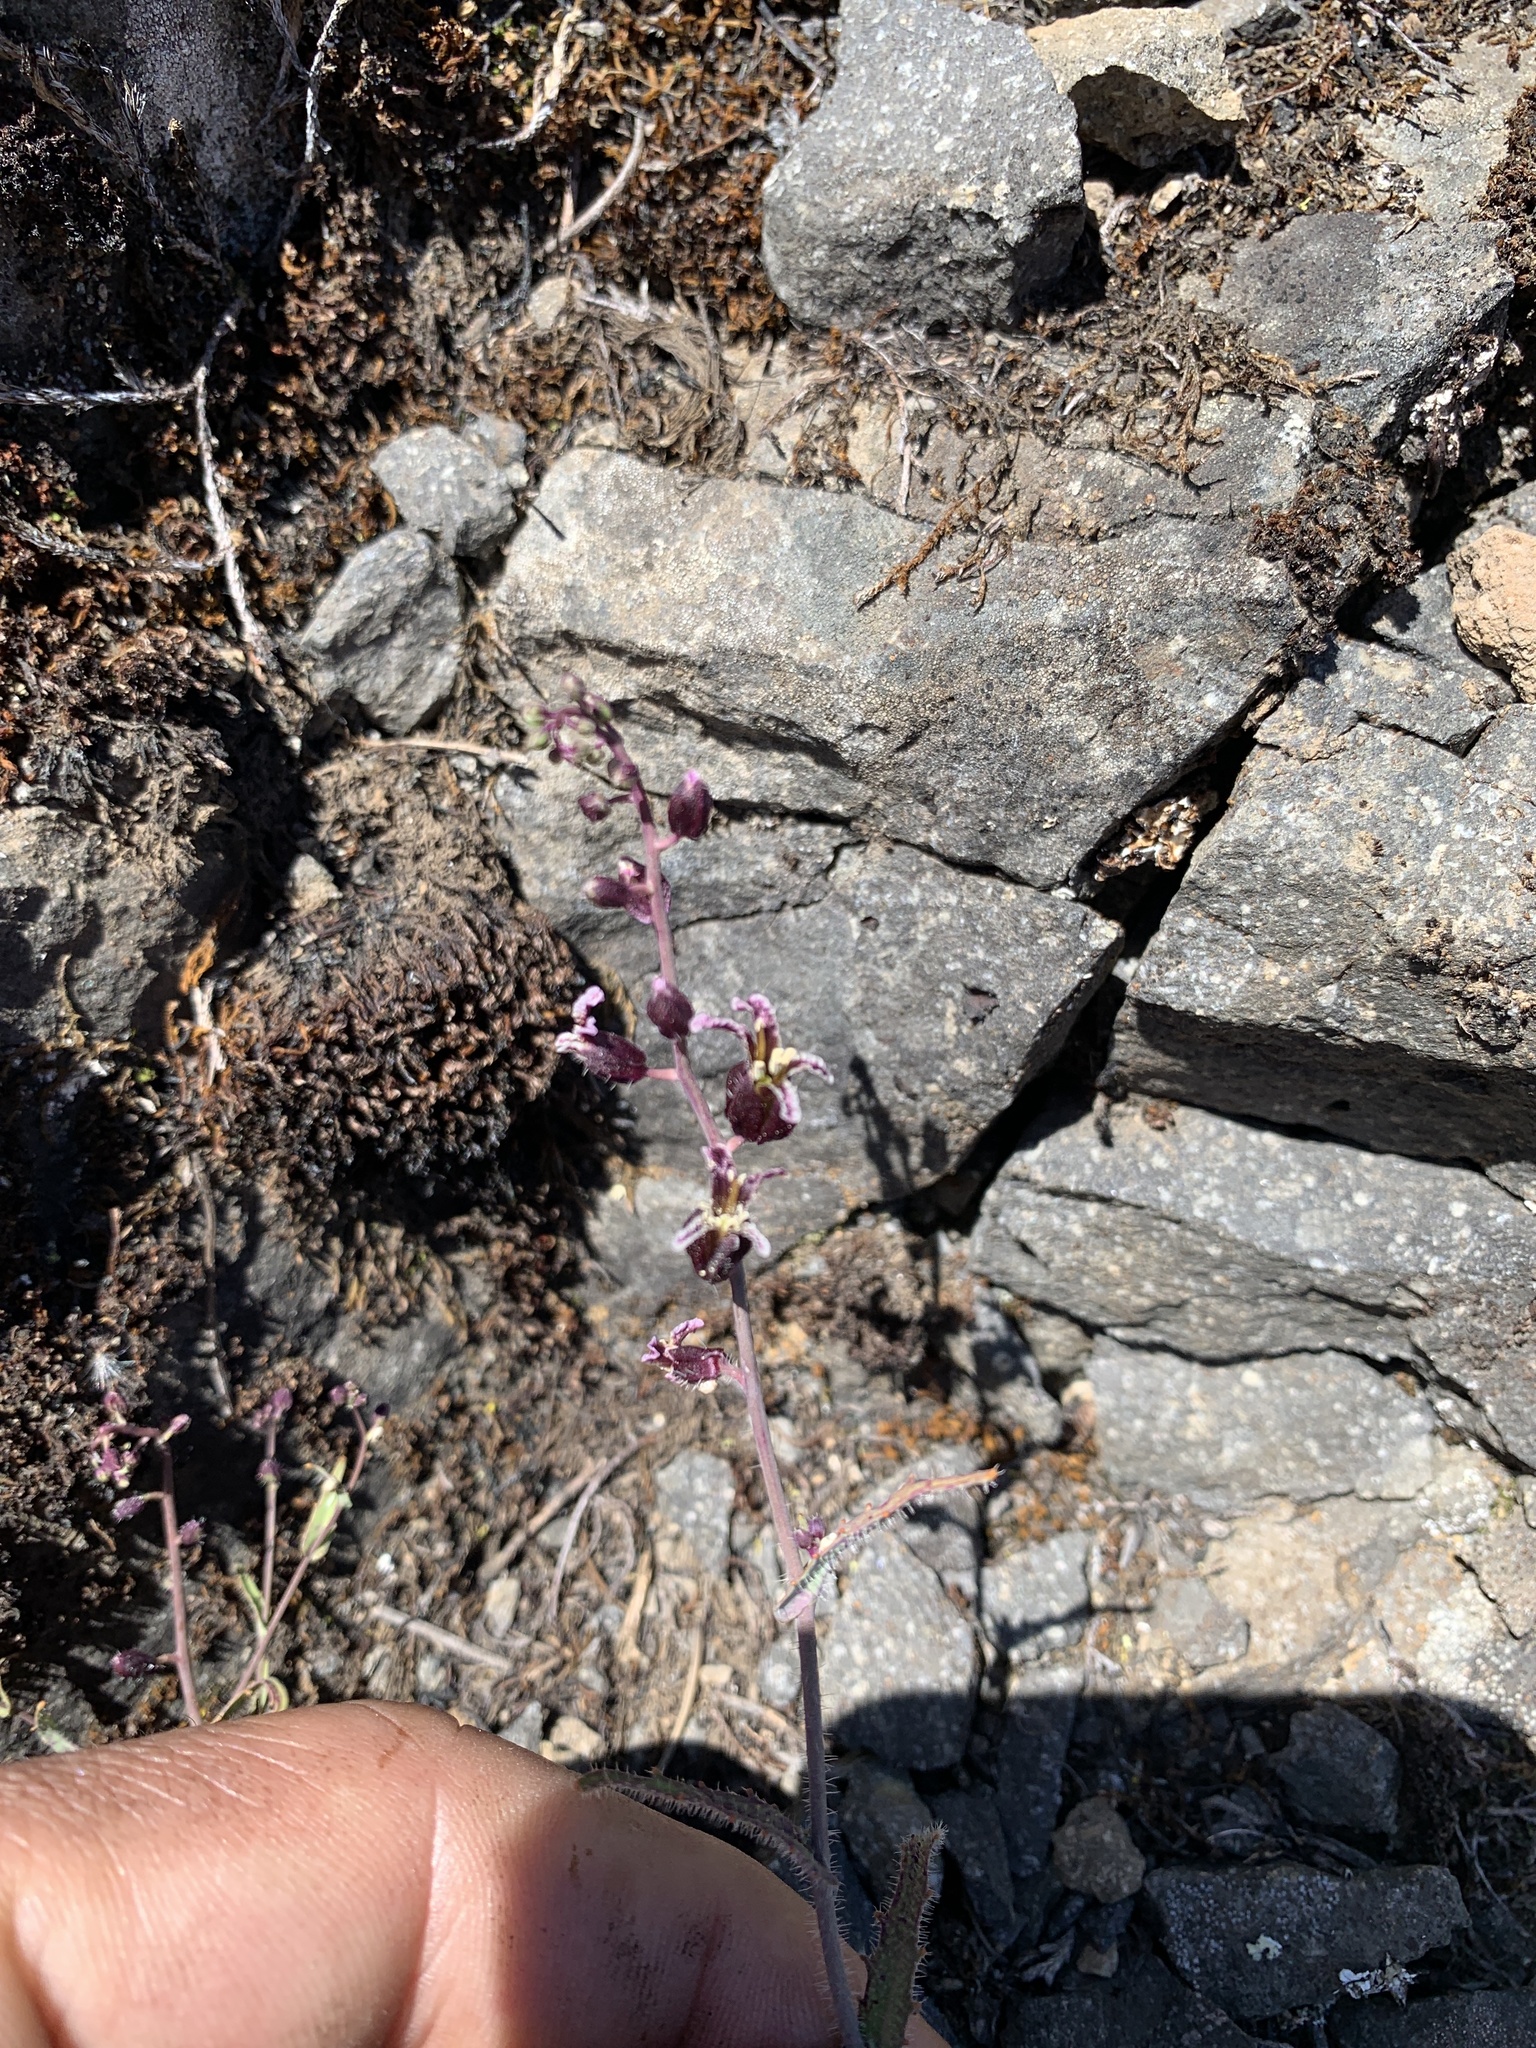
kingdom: Plantae
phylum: Tracheophyta
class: Magnoliopsida
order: Brassicales
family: Brassicaceae
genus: Streptanthus
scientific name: Streptanthus glandulosus
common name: Jewel-flower
